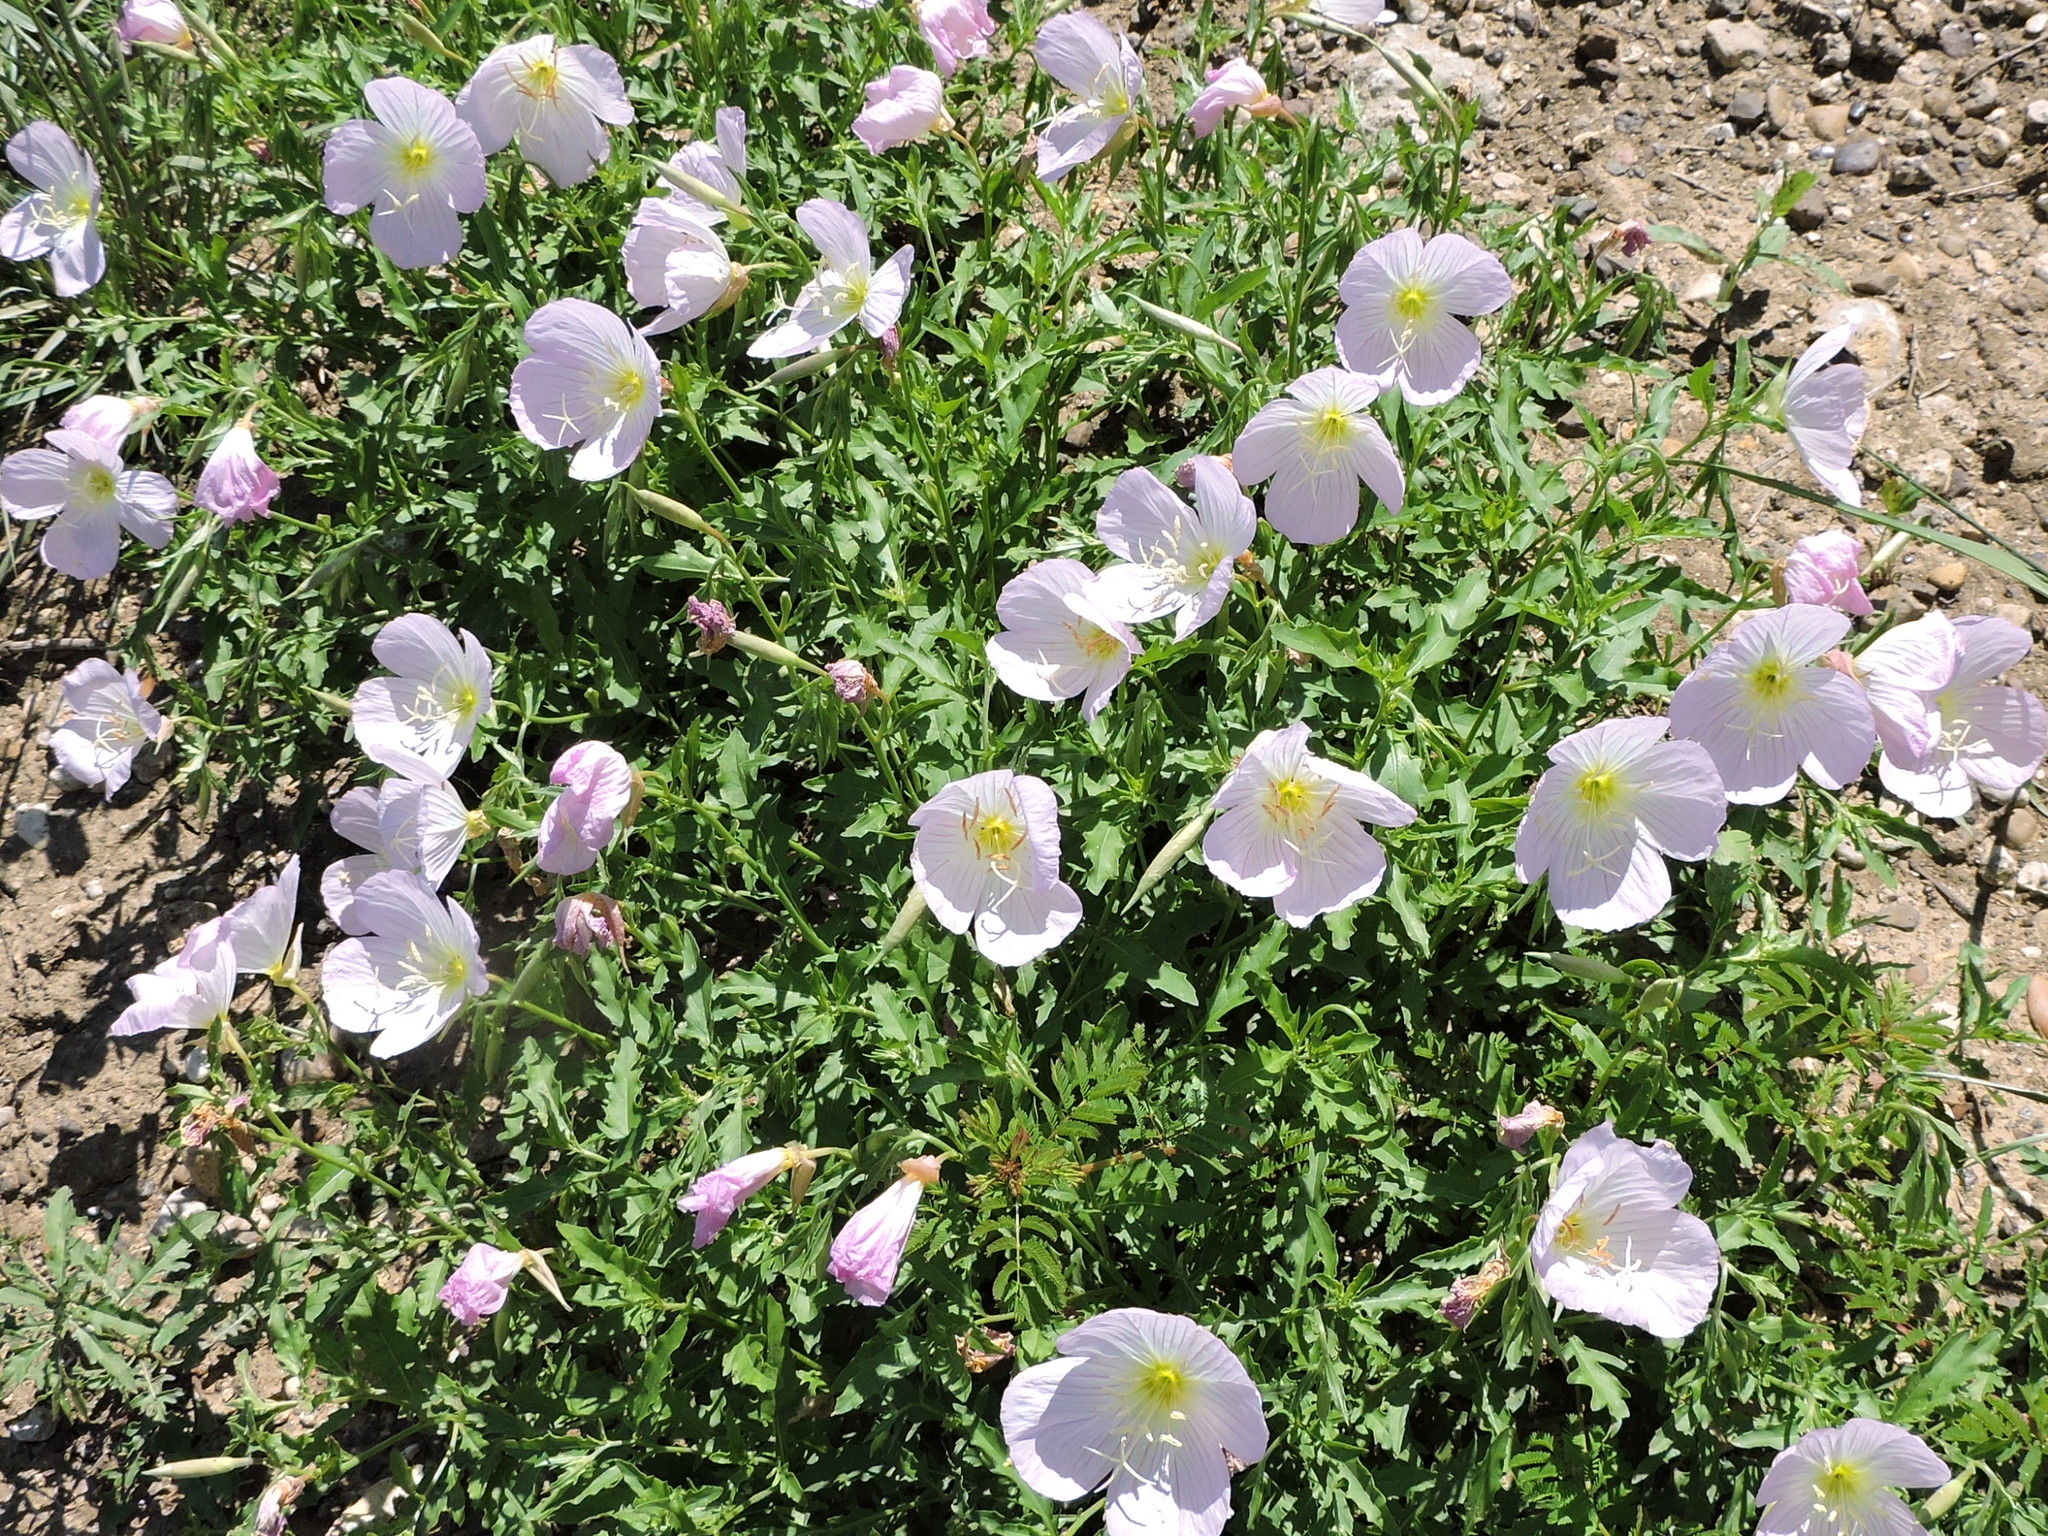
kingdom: Plantae
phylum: Tracheophyta
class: Magnoliopsida
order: Myrtales
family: Onagraceae
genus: Oenothera
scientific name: Oenothera speciosa
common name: White evening-primrose
